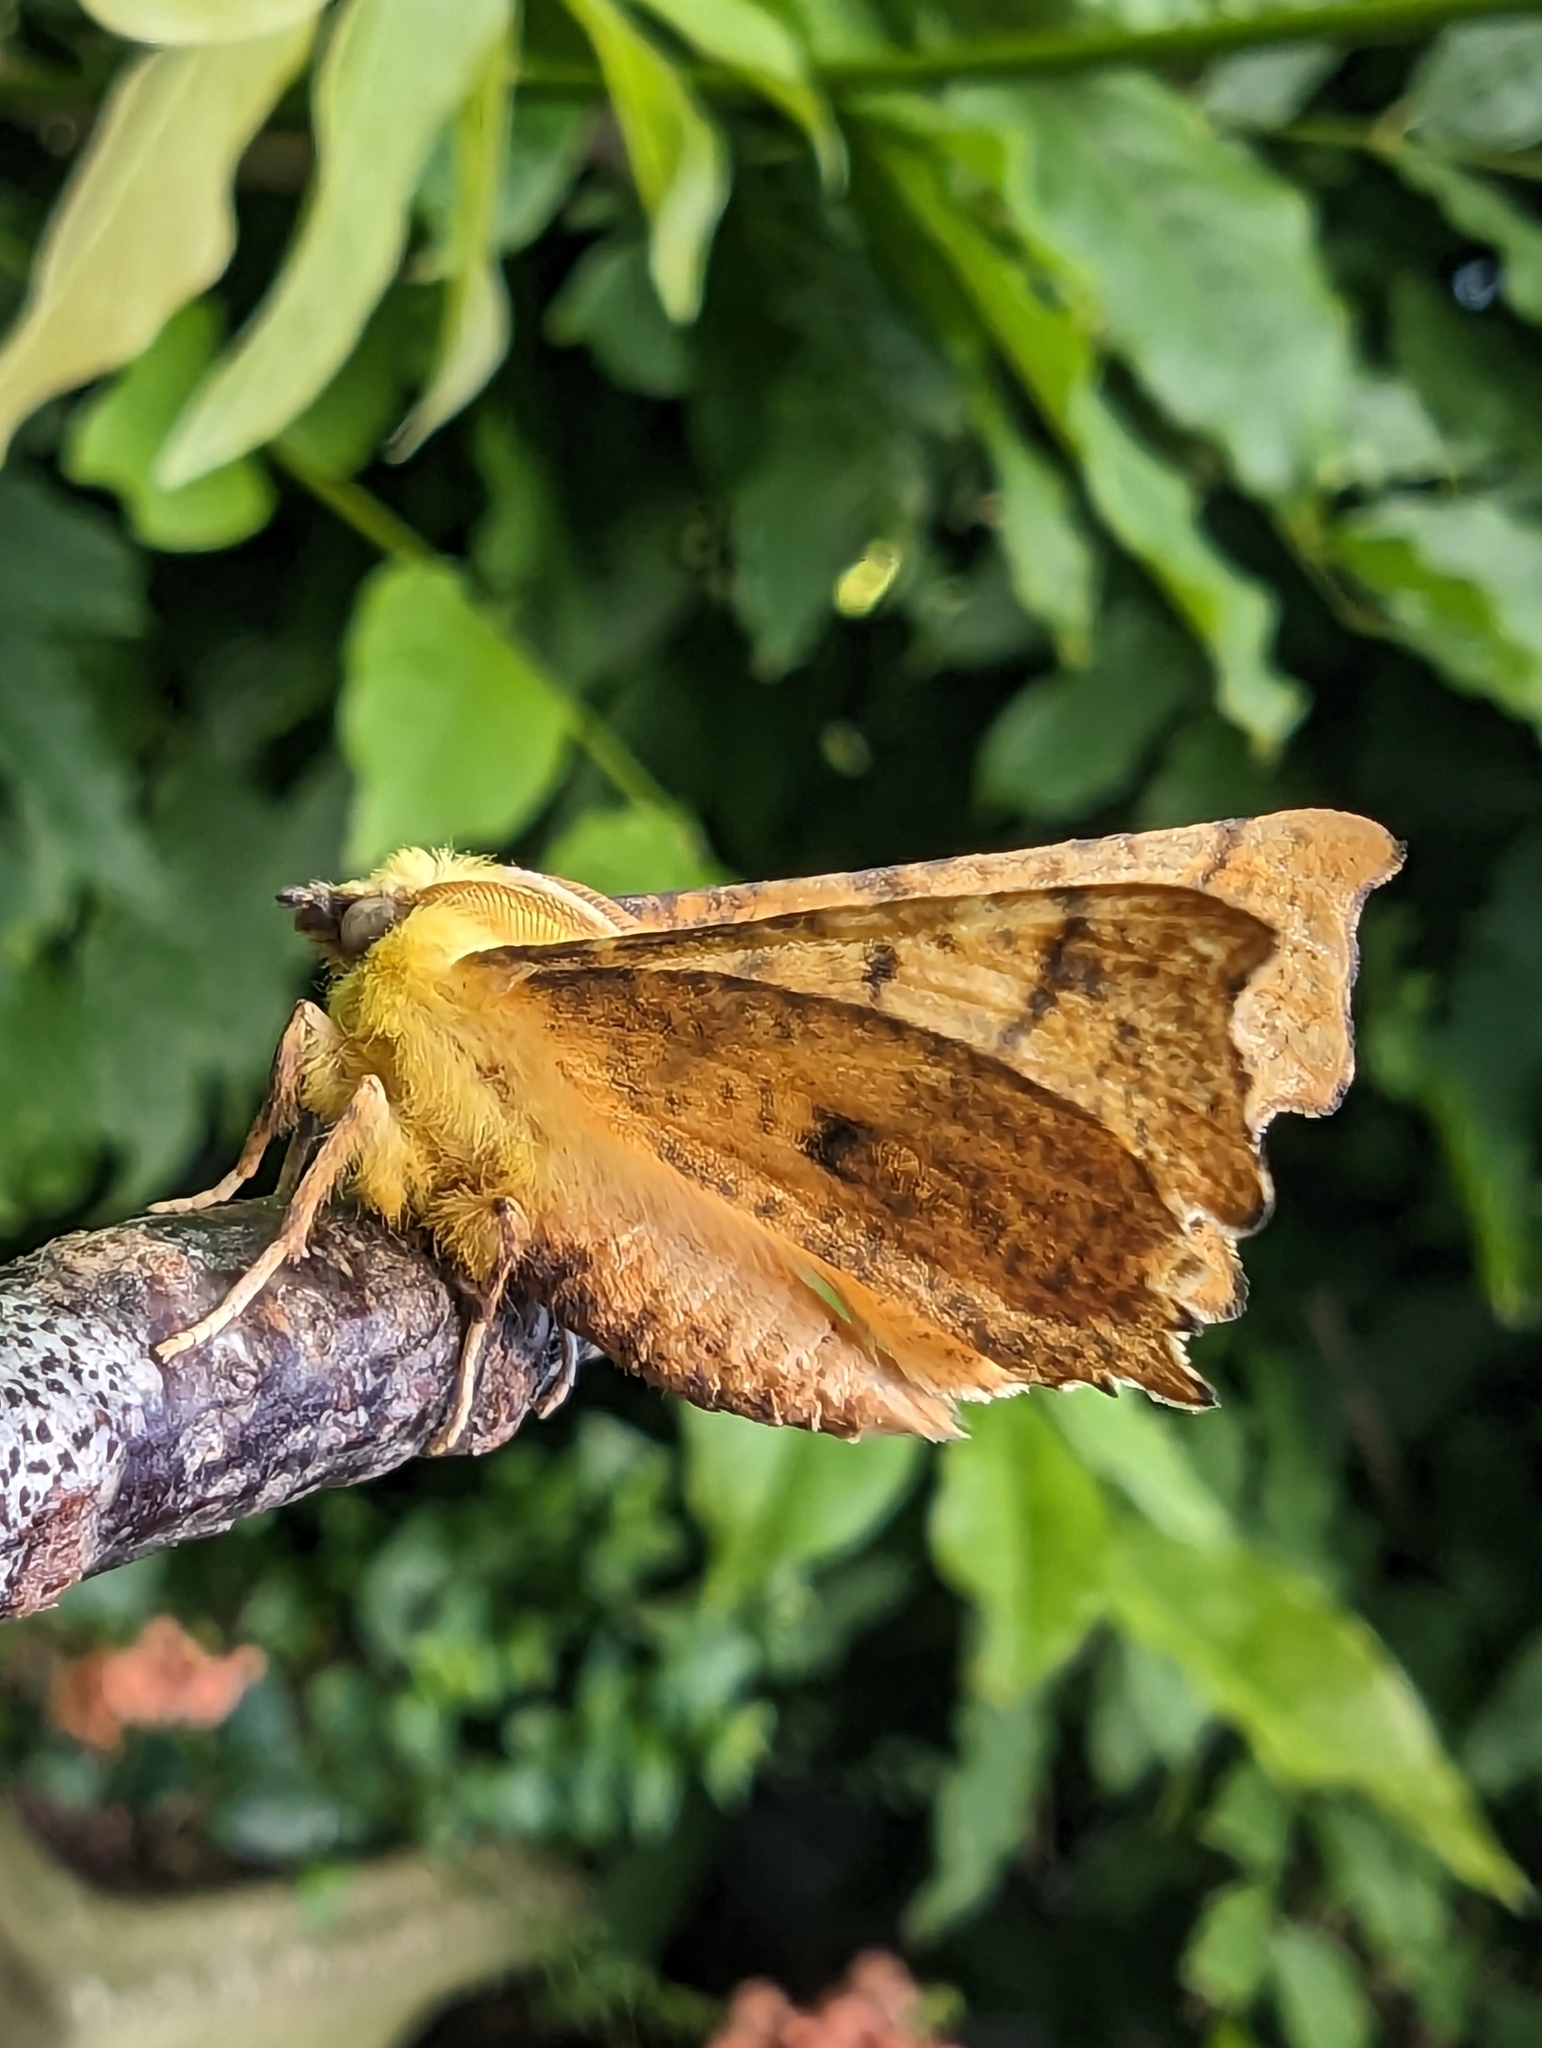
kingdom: Animalia
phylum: Arthropoda
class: Insecta
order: Lepidoptera
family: Geometridae
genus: Ennomos
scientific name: Ennomos alniaria
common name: Canary-shouldered thorn
